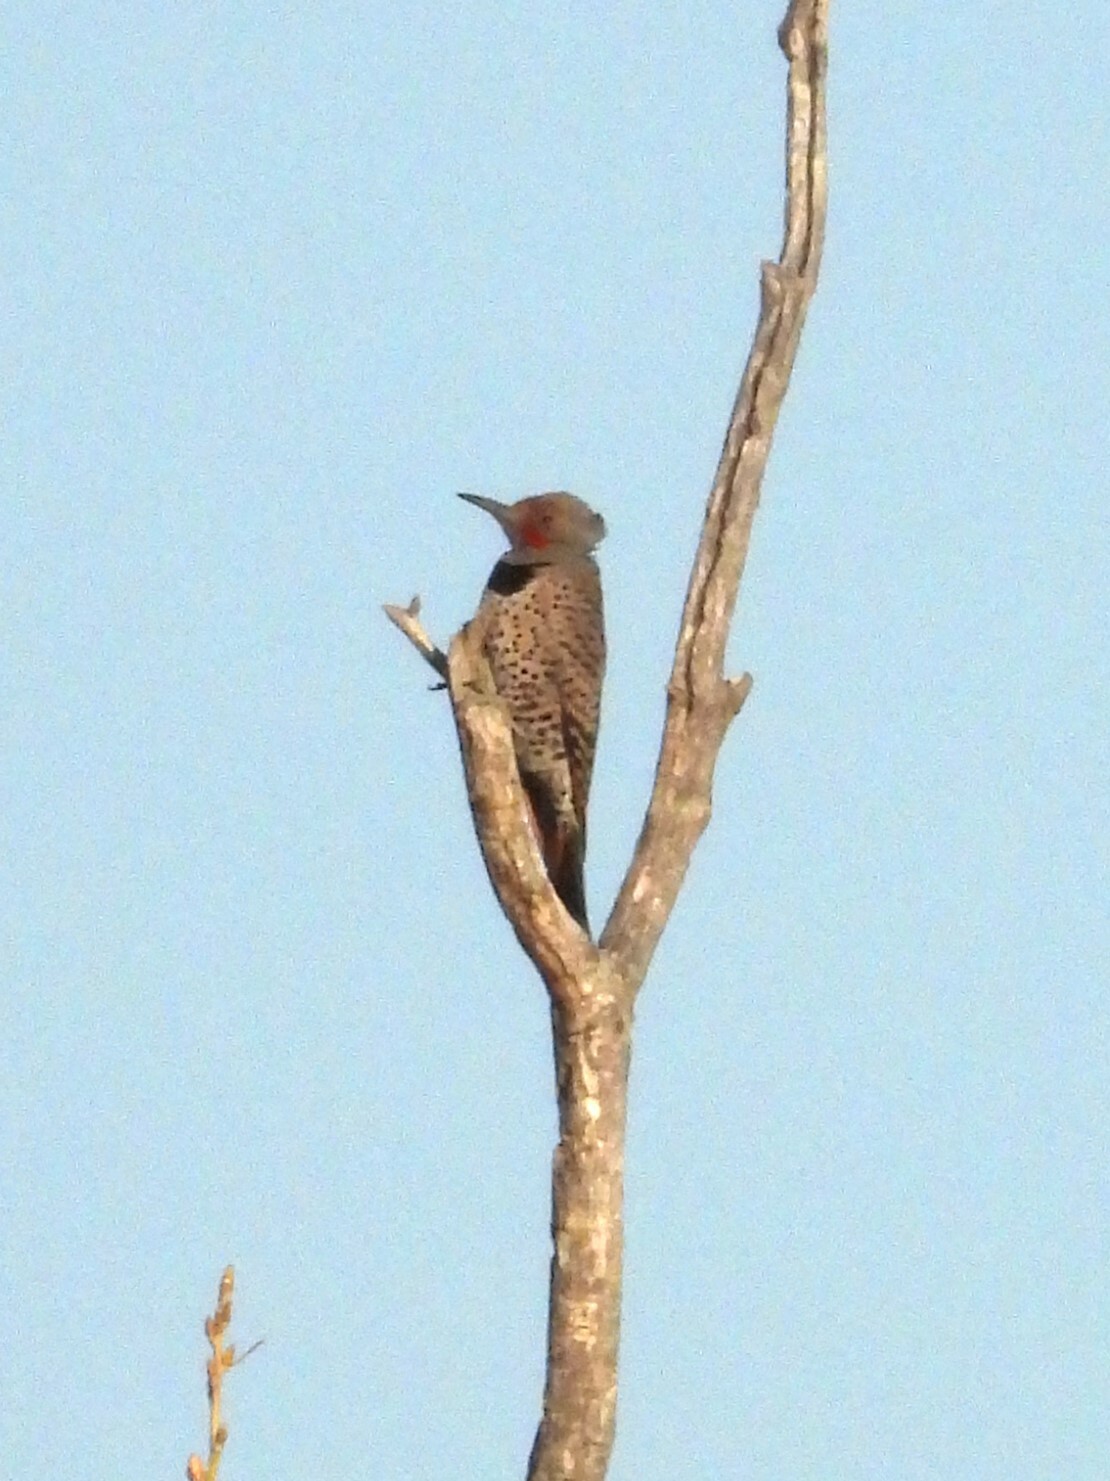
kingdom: Animalia
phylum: Chordata
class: Aves
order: Piciformes
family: Picidae
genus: Colaptes
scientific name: Colaptes auratus
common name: Northern flicker
